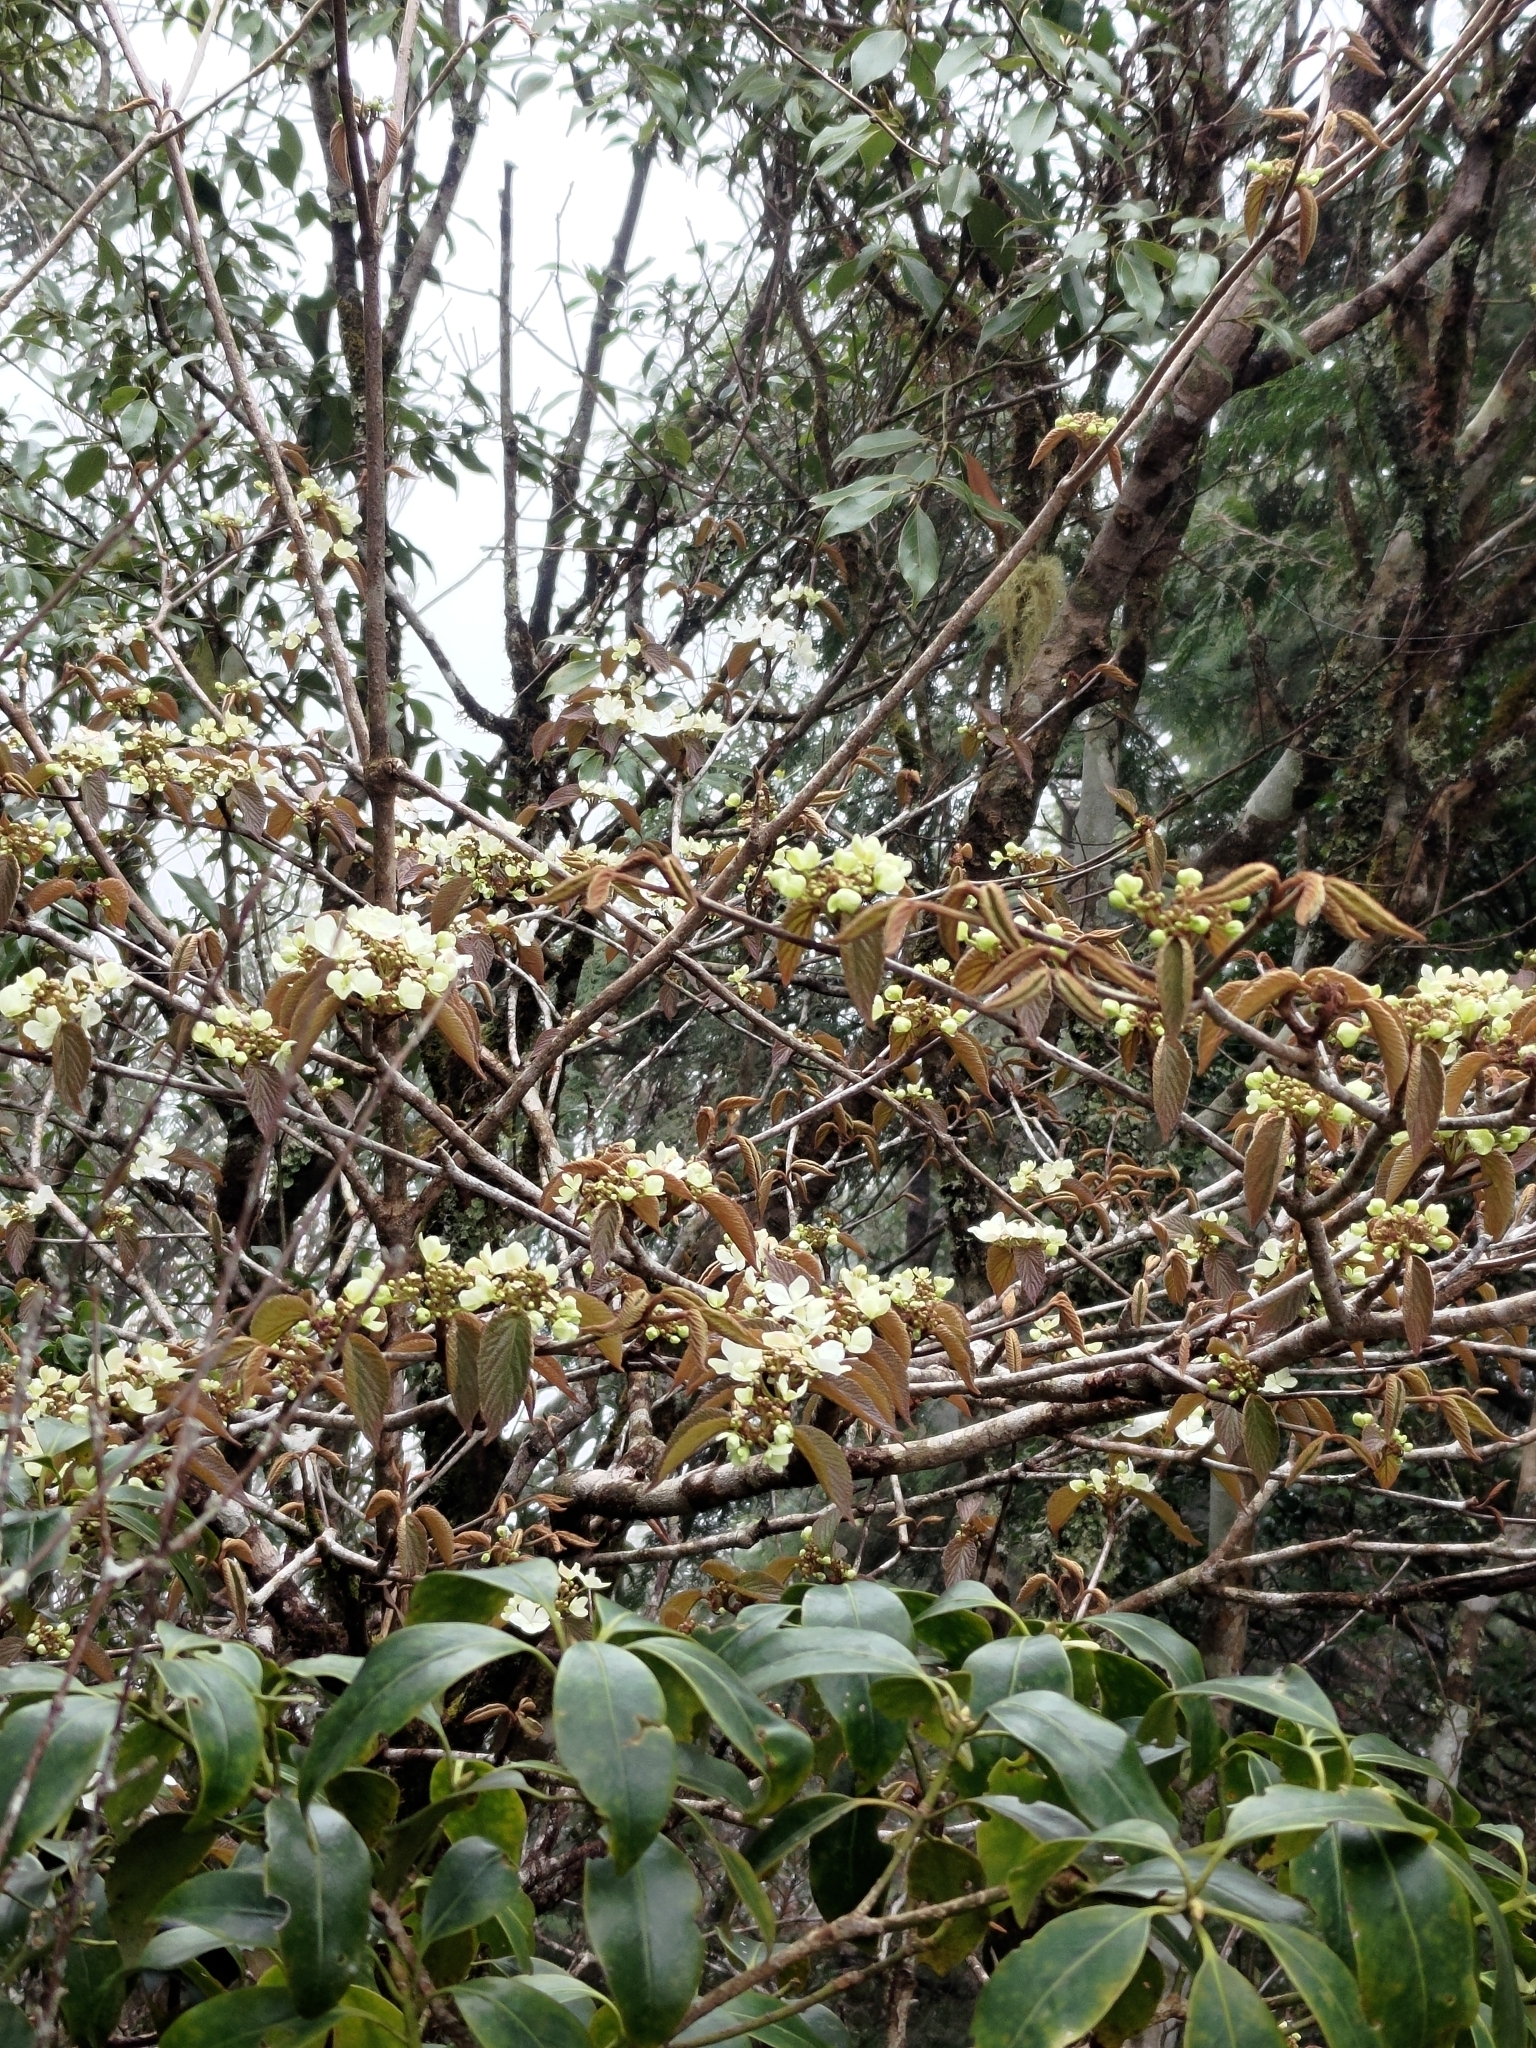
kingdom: Plantae
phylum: Tracheophyta
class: Magnoliopsida
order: Dipsacales
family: Viburnaceae
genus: Viburnum
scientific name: Viburnum furcatum
